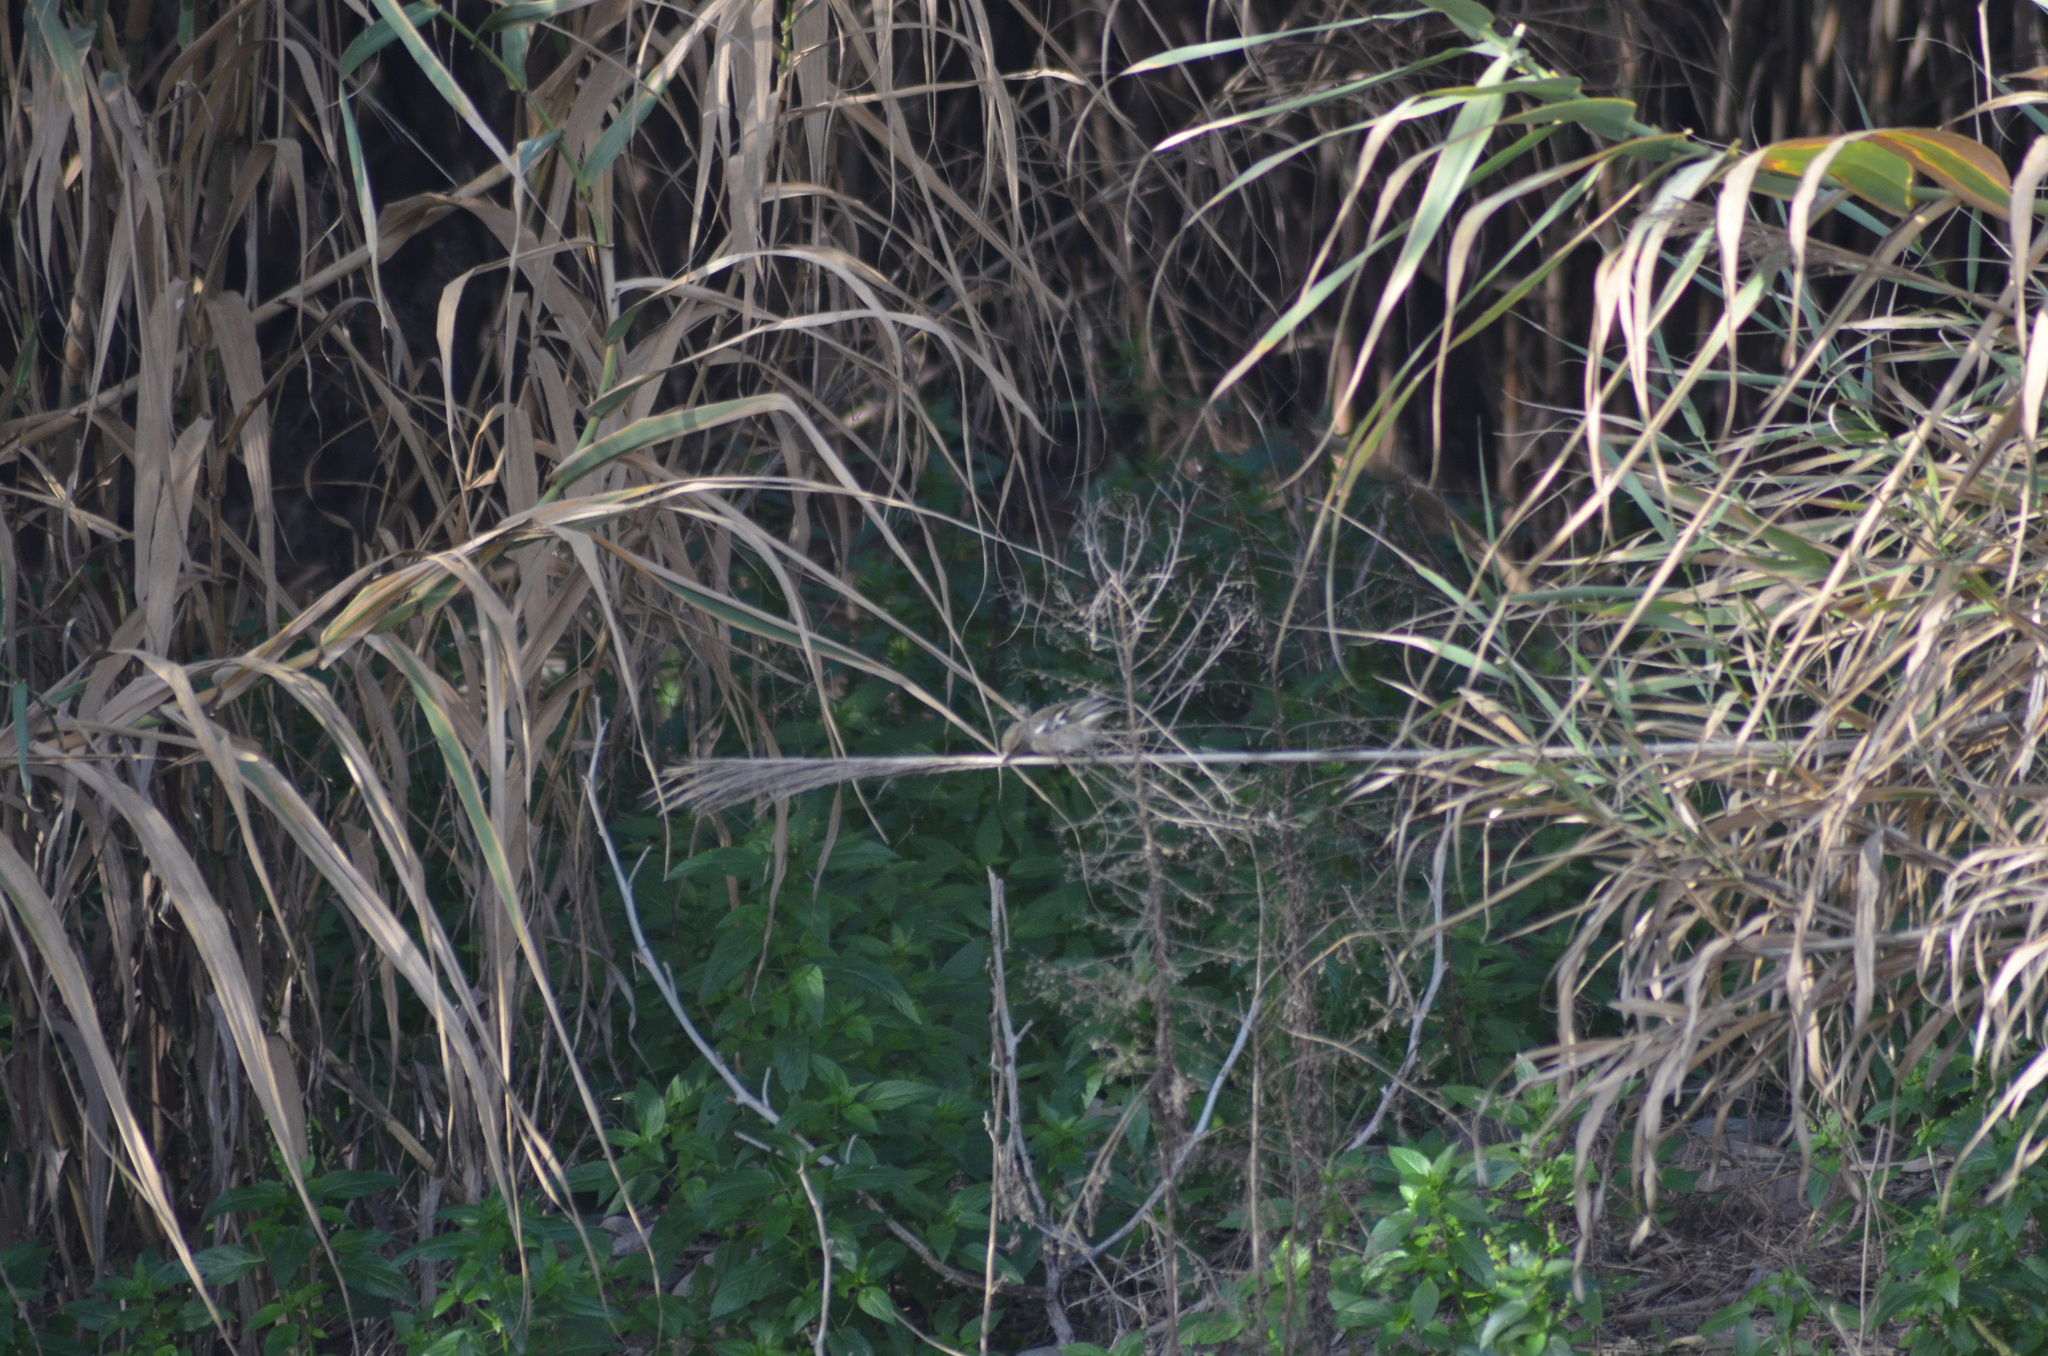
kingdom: Animalia
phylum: Chordata
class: Aves
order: Passeriformes
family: Fringillidae
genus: Fringilla
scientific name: Fringilla coelebs
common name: Common chaffinch
